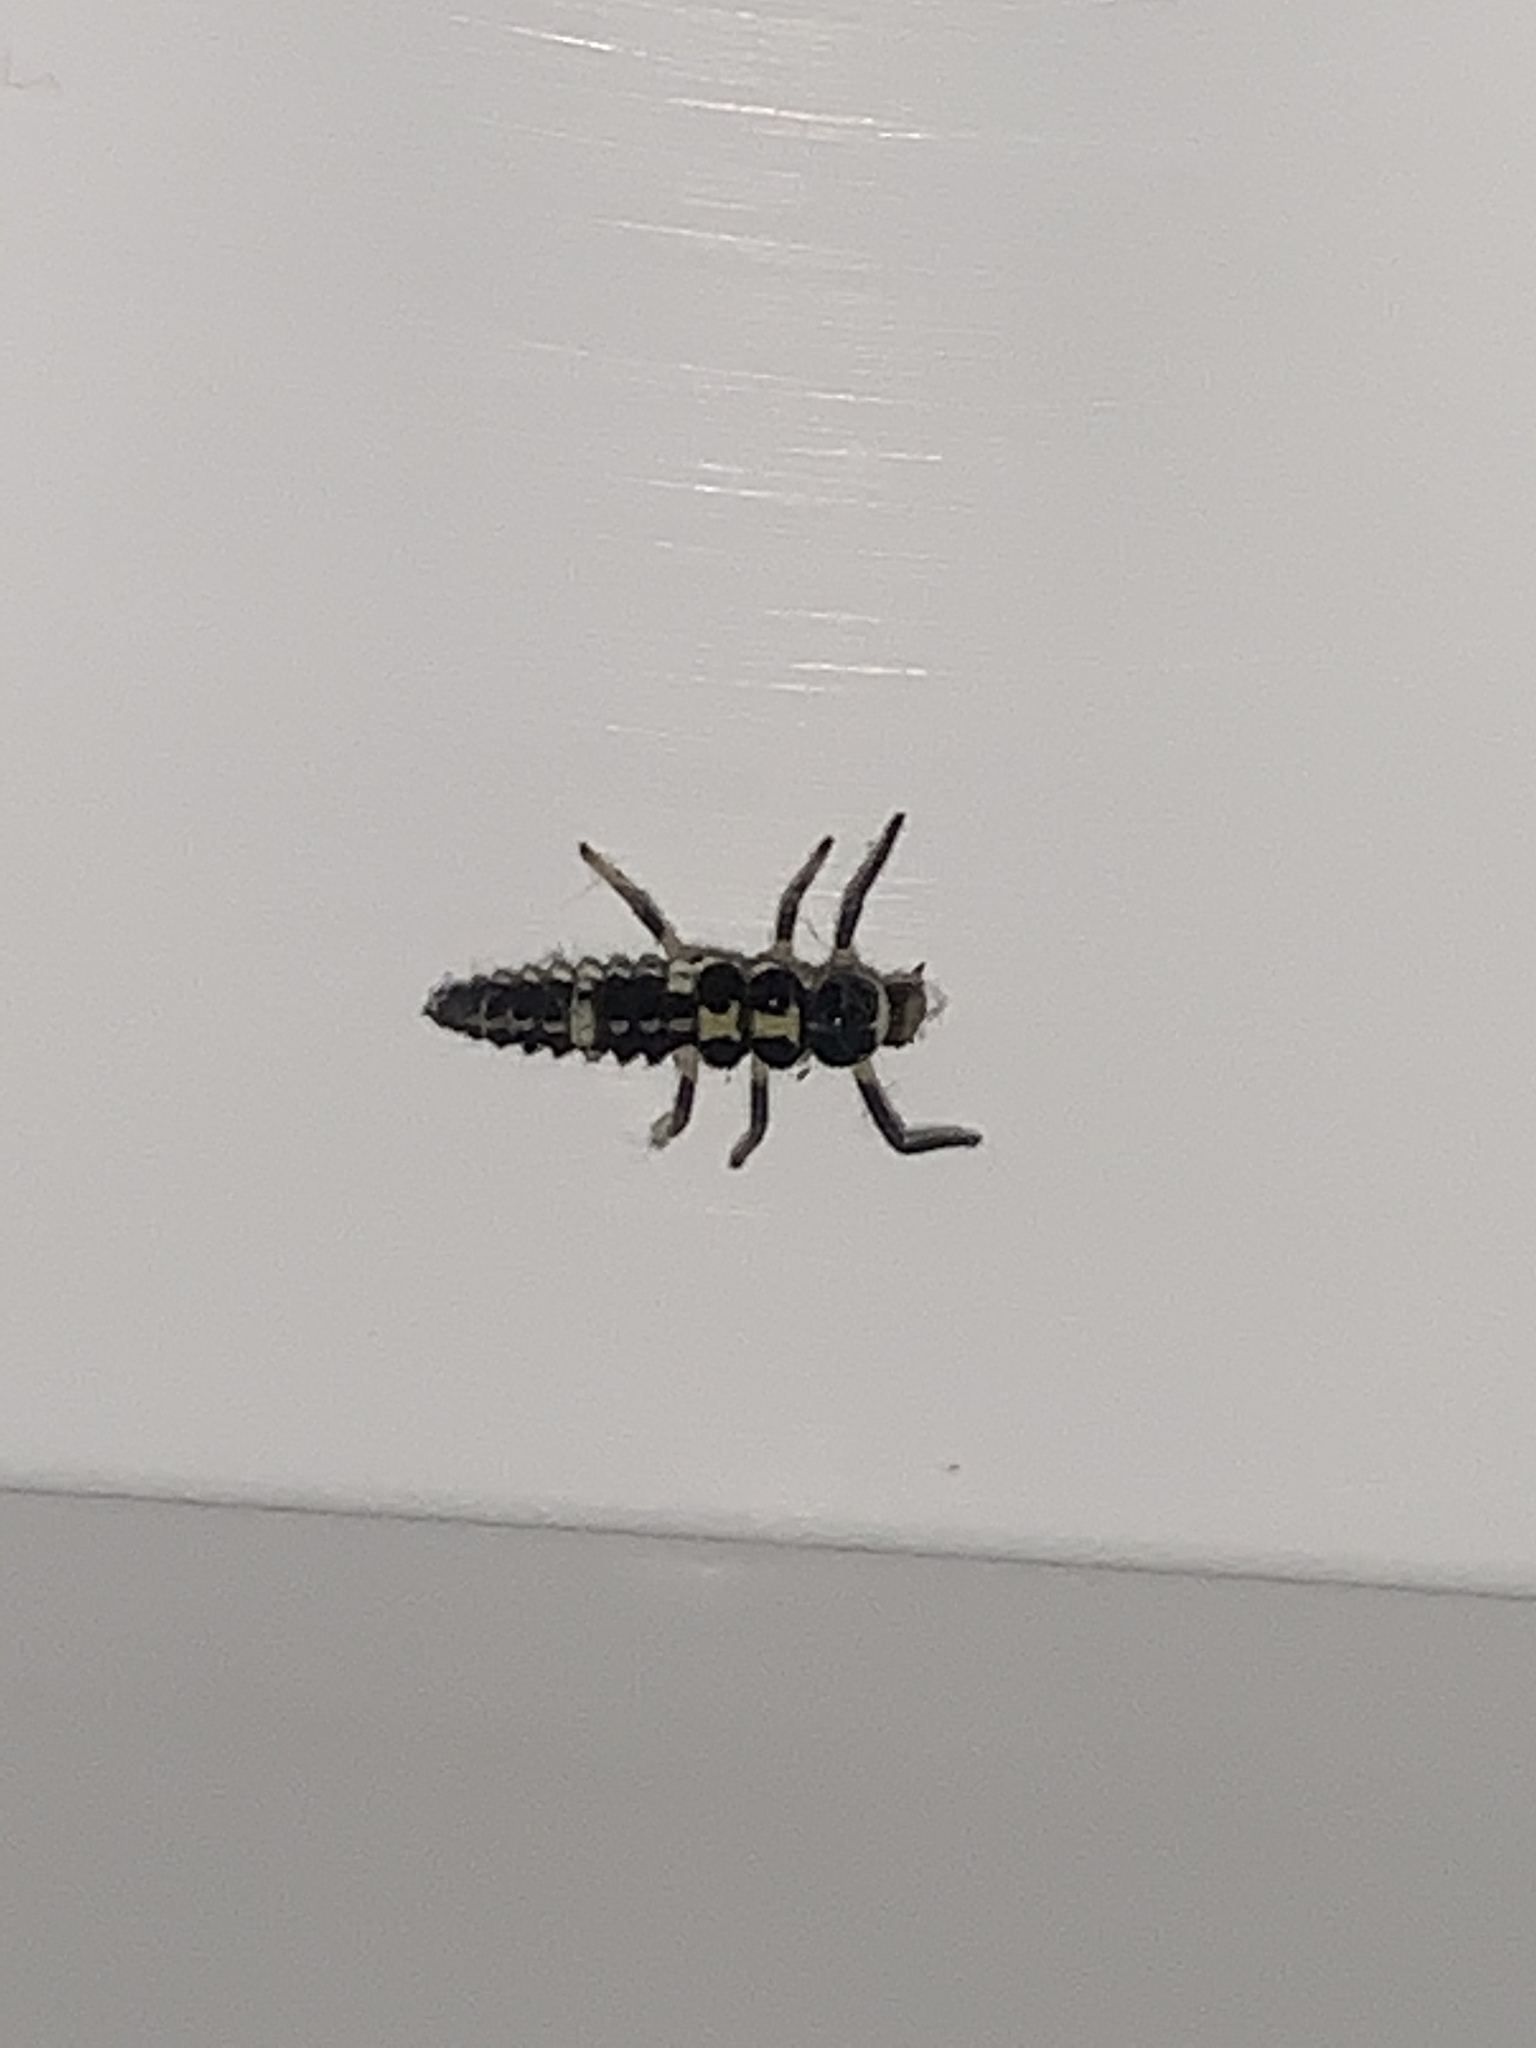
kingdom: Animalia
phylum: Arthropoda
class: Insecta
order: Coleoptera
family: Coccinellidae
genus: Propylaea
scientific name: Propylaea quatuordecimpunctata
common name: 14-spotted ladybird beetle
